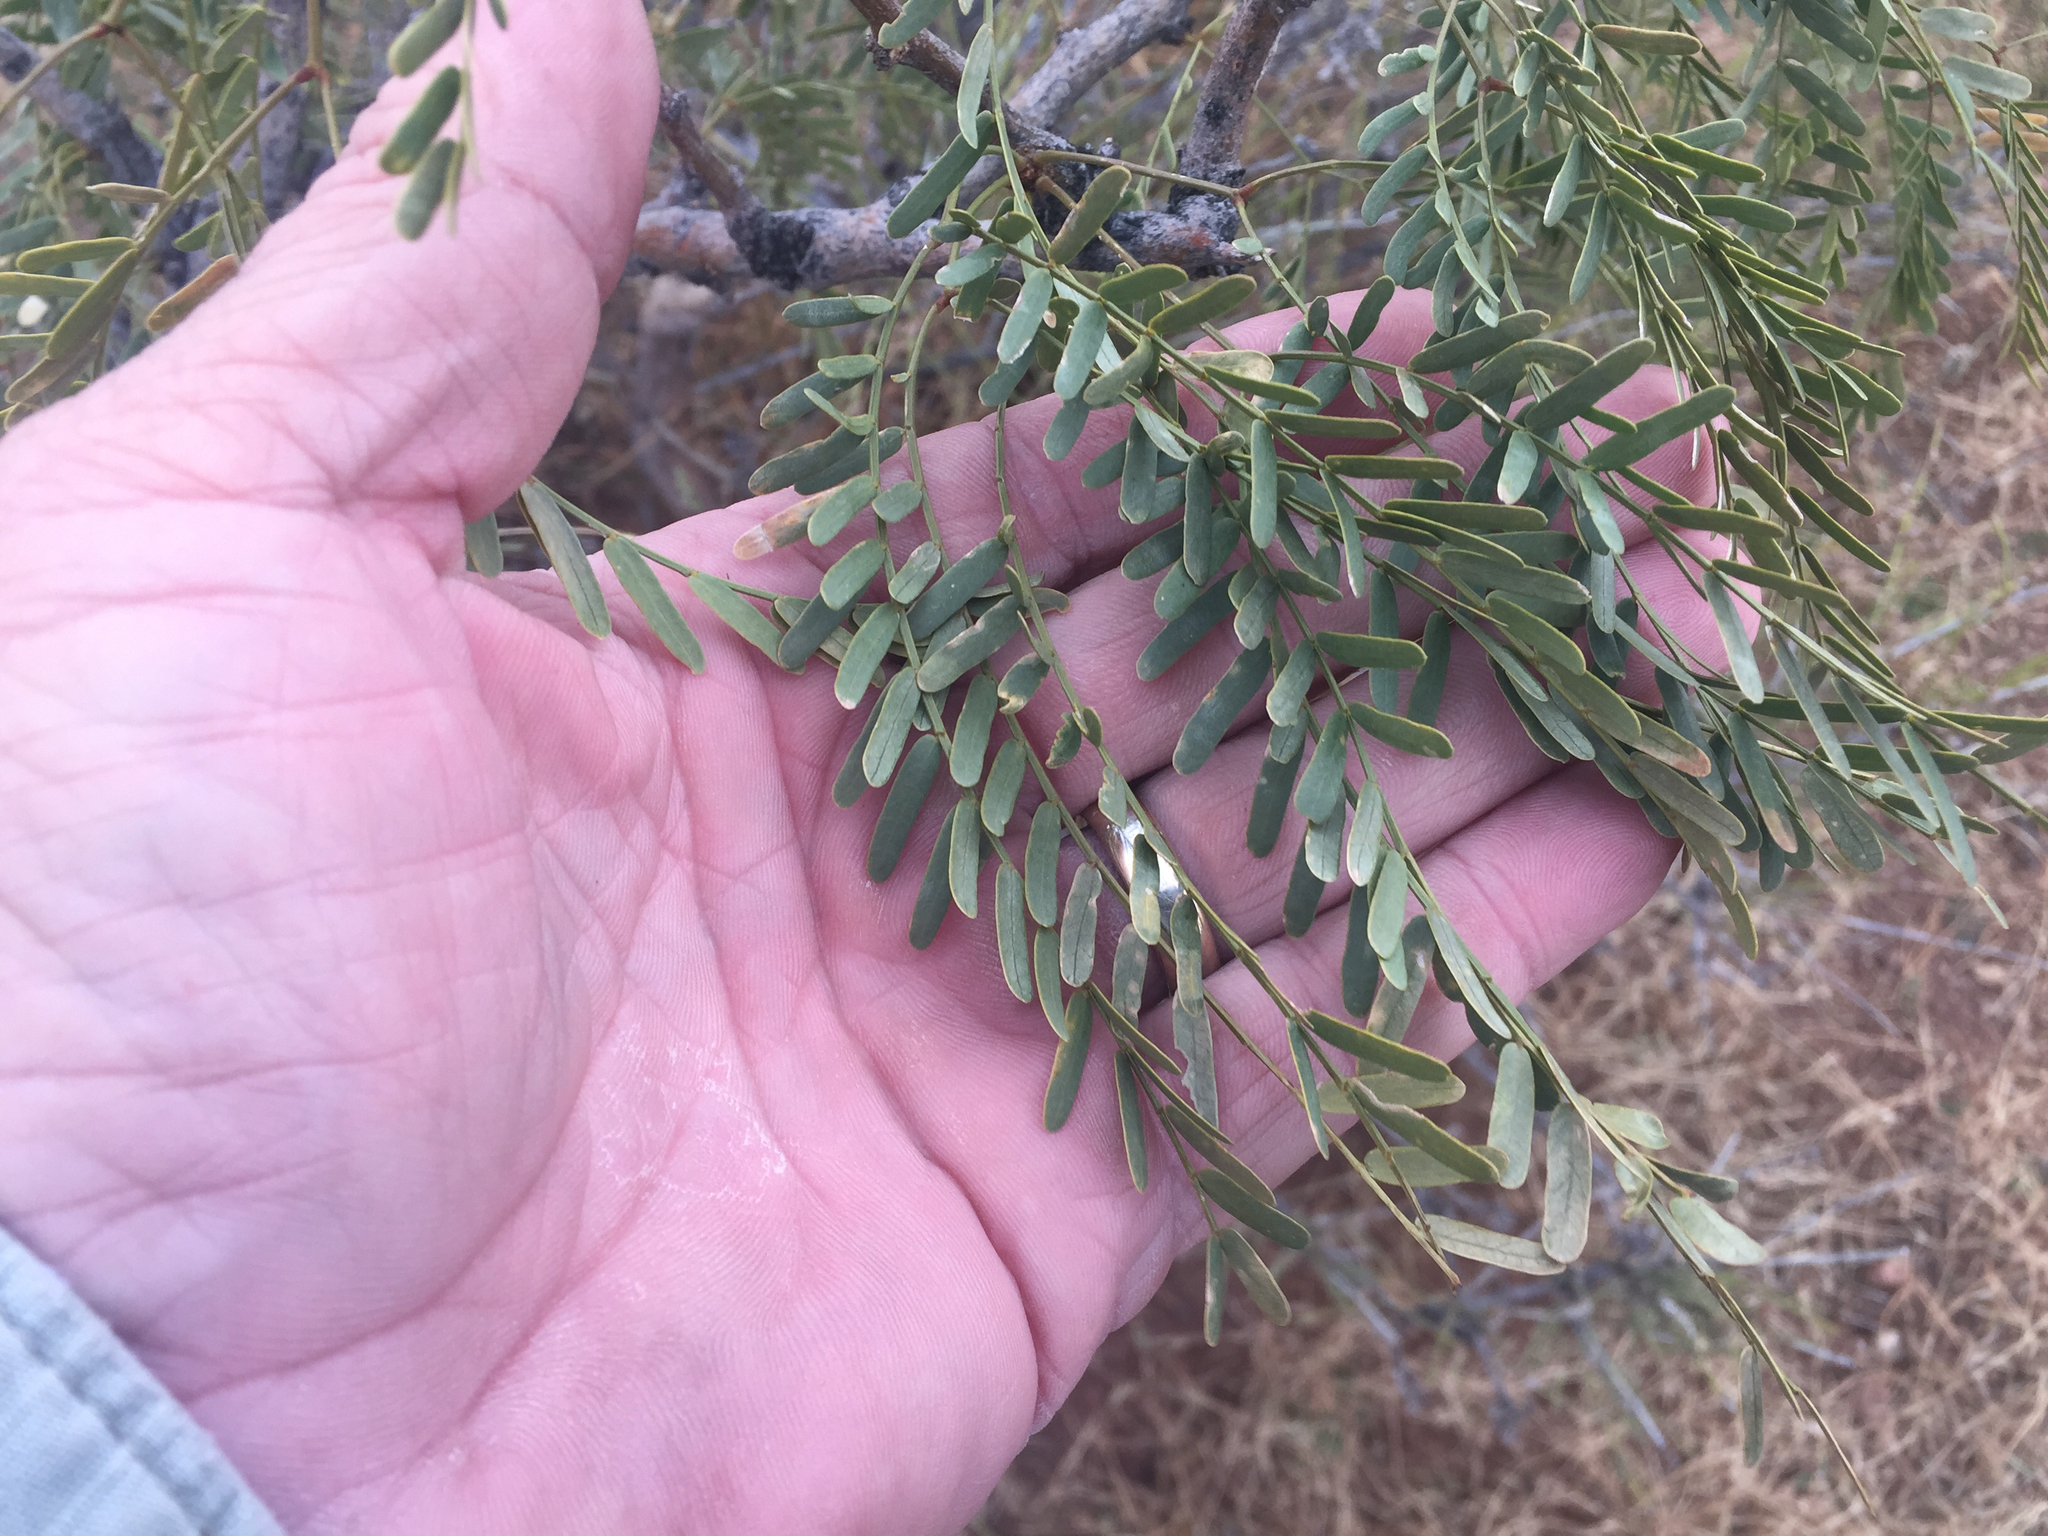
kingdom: Plantae
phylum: Tracheophyta
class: Magnoliopsida
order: Fabales
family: Fabaceae
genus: Prosopis
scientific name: Prosopis glandulosa
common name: Honey mesquite
